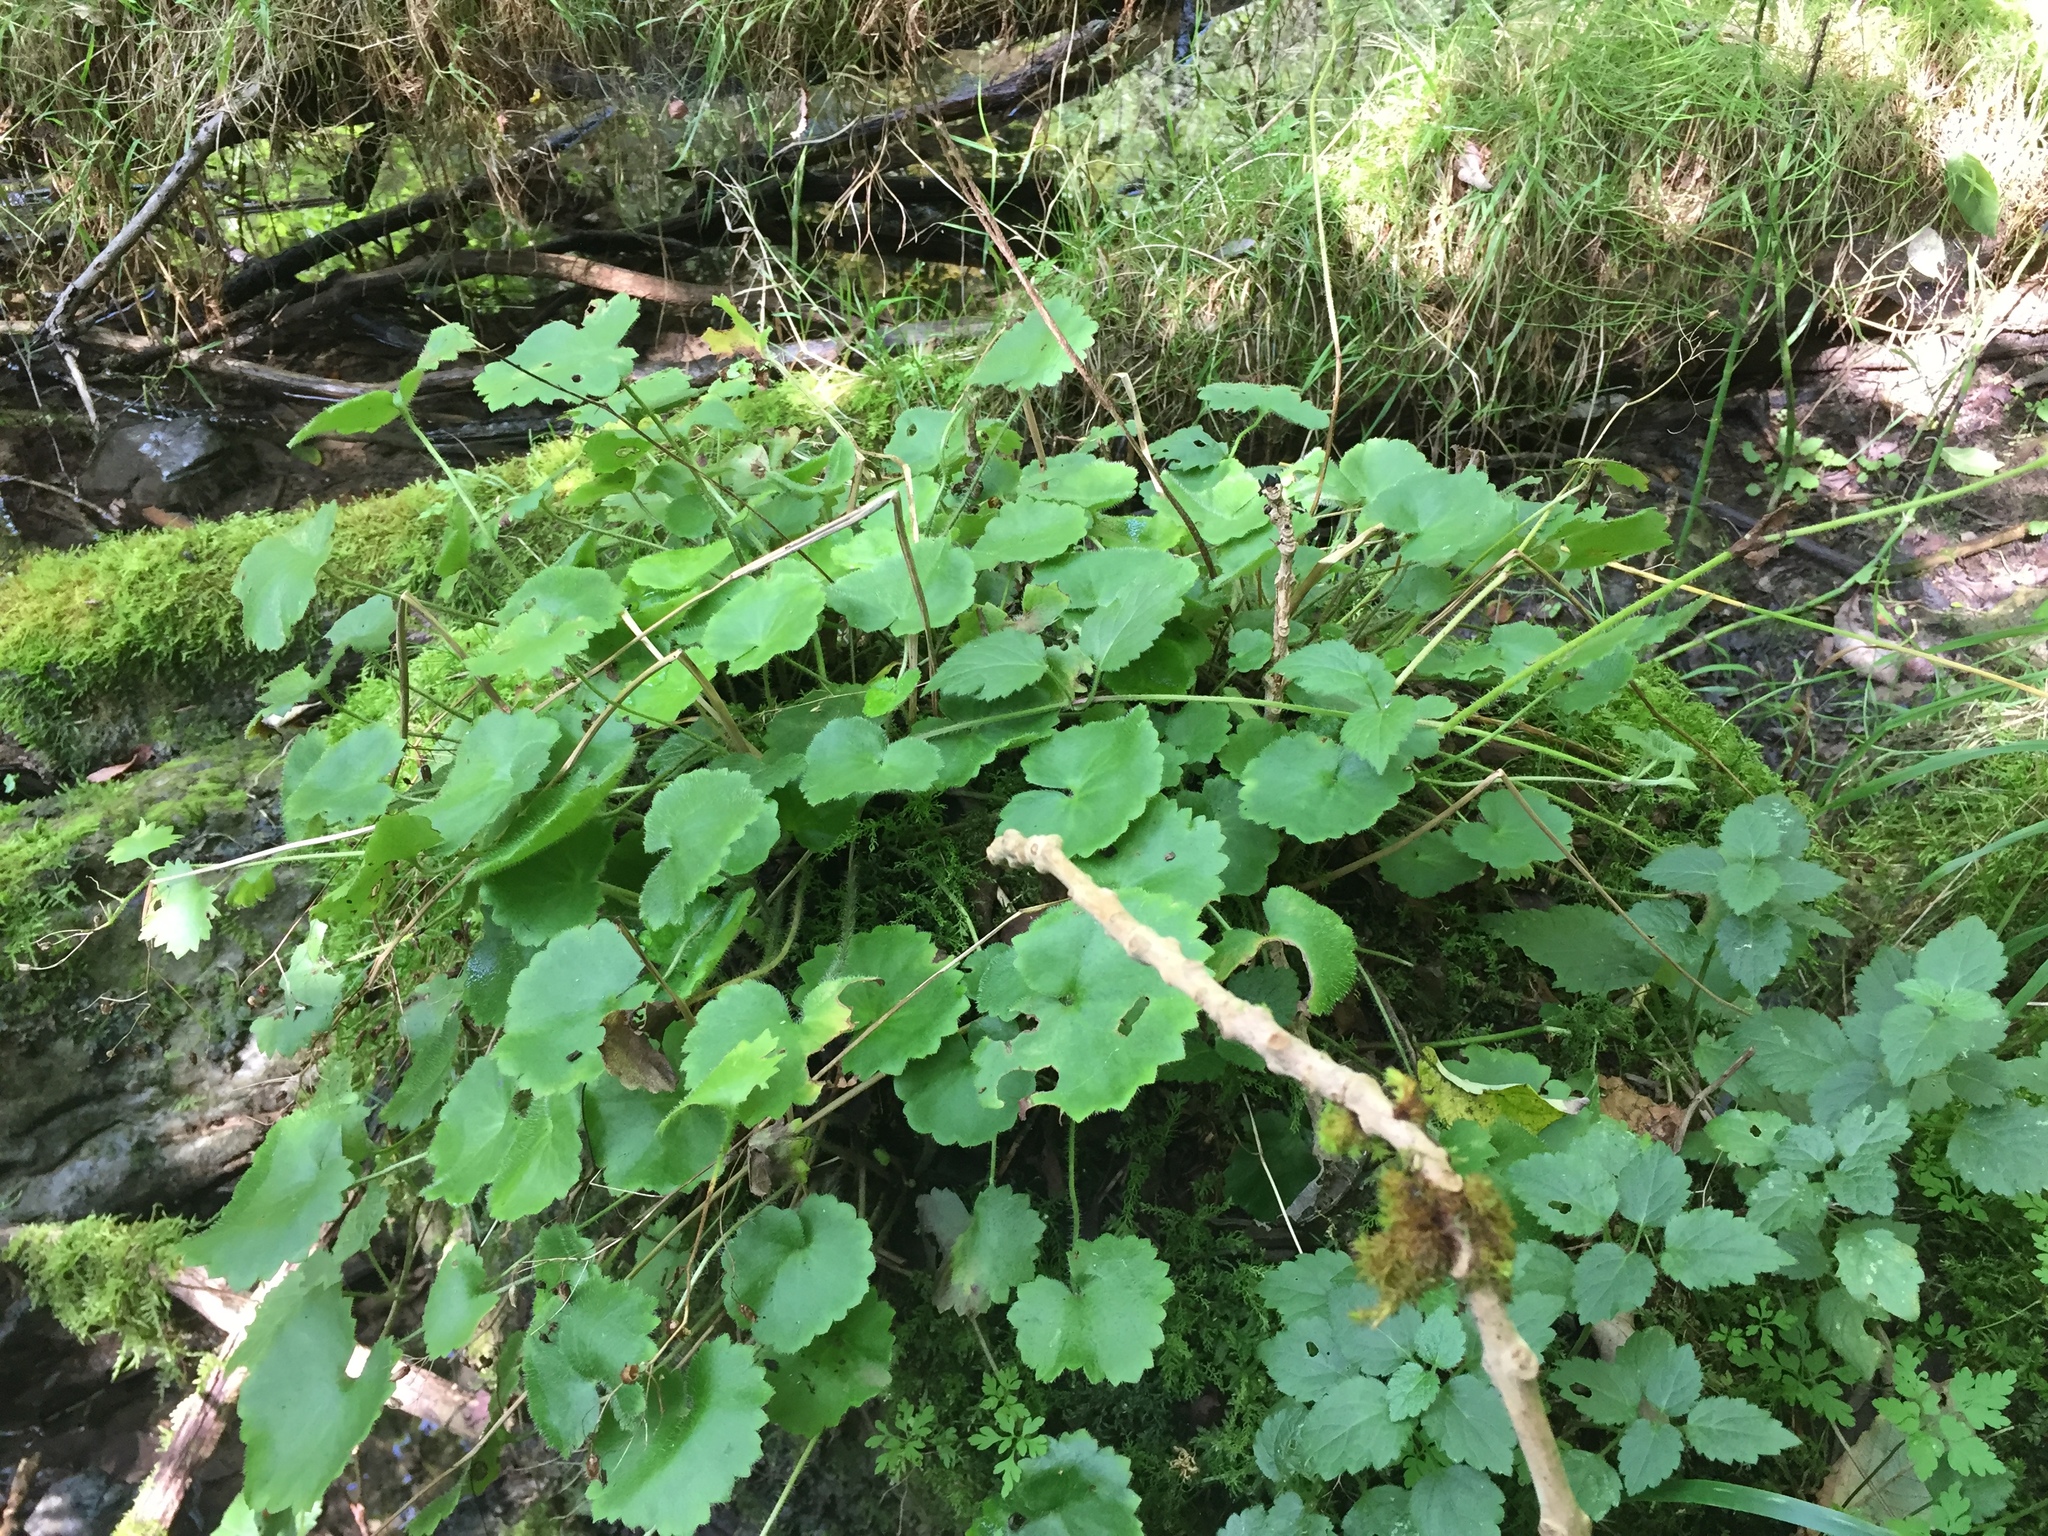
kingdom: Plantae
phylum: Tracheophyta
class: Magnoliopsida
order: Saxifragales
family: Saxifragaceae
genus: Saxifraga
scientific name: Saxifraga rotundifolia
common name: Round-leaved saxifrage
